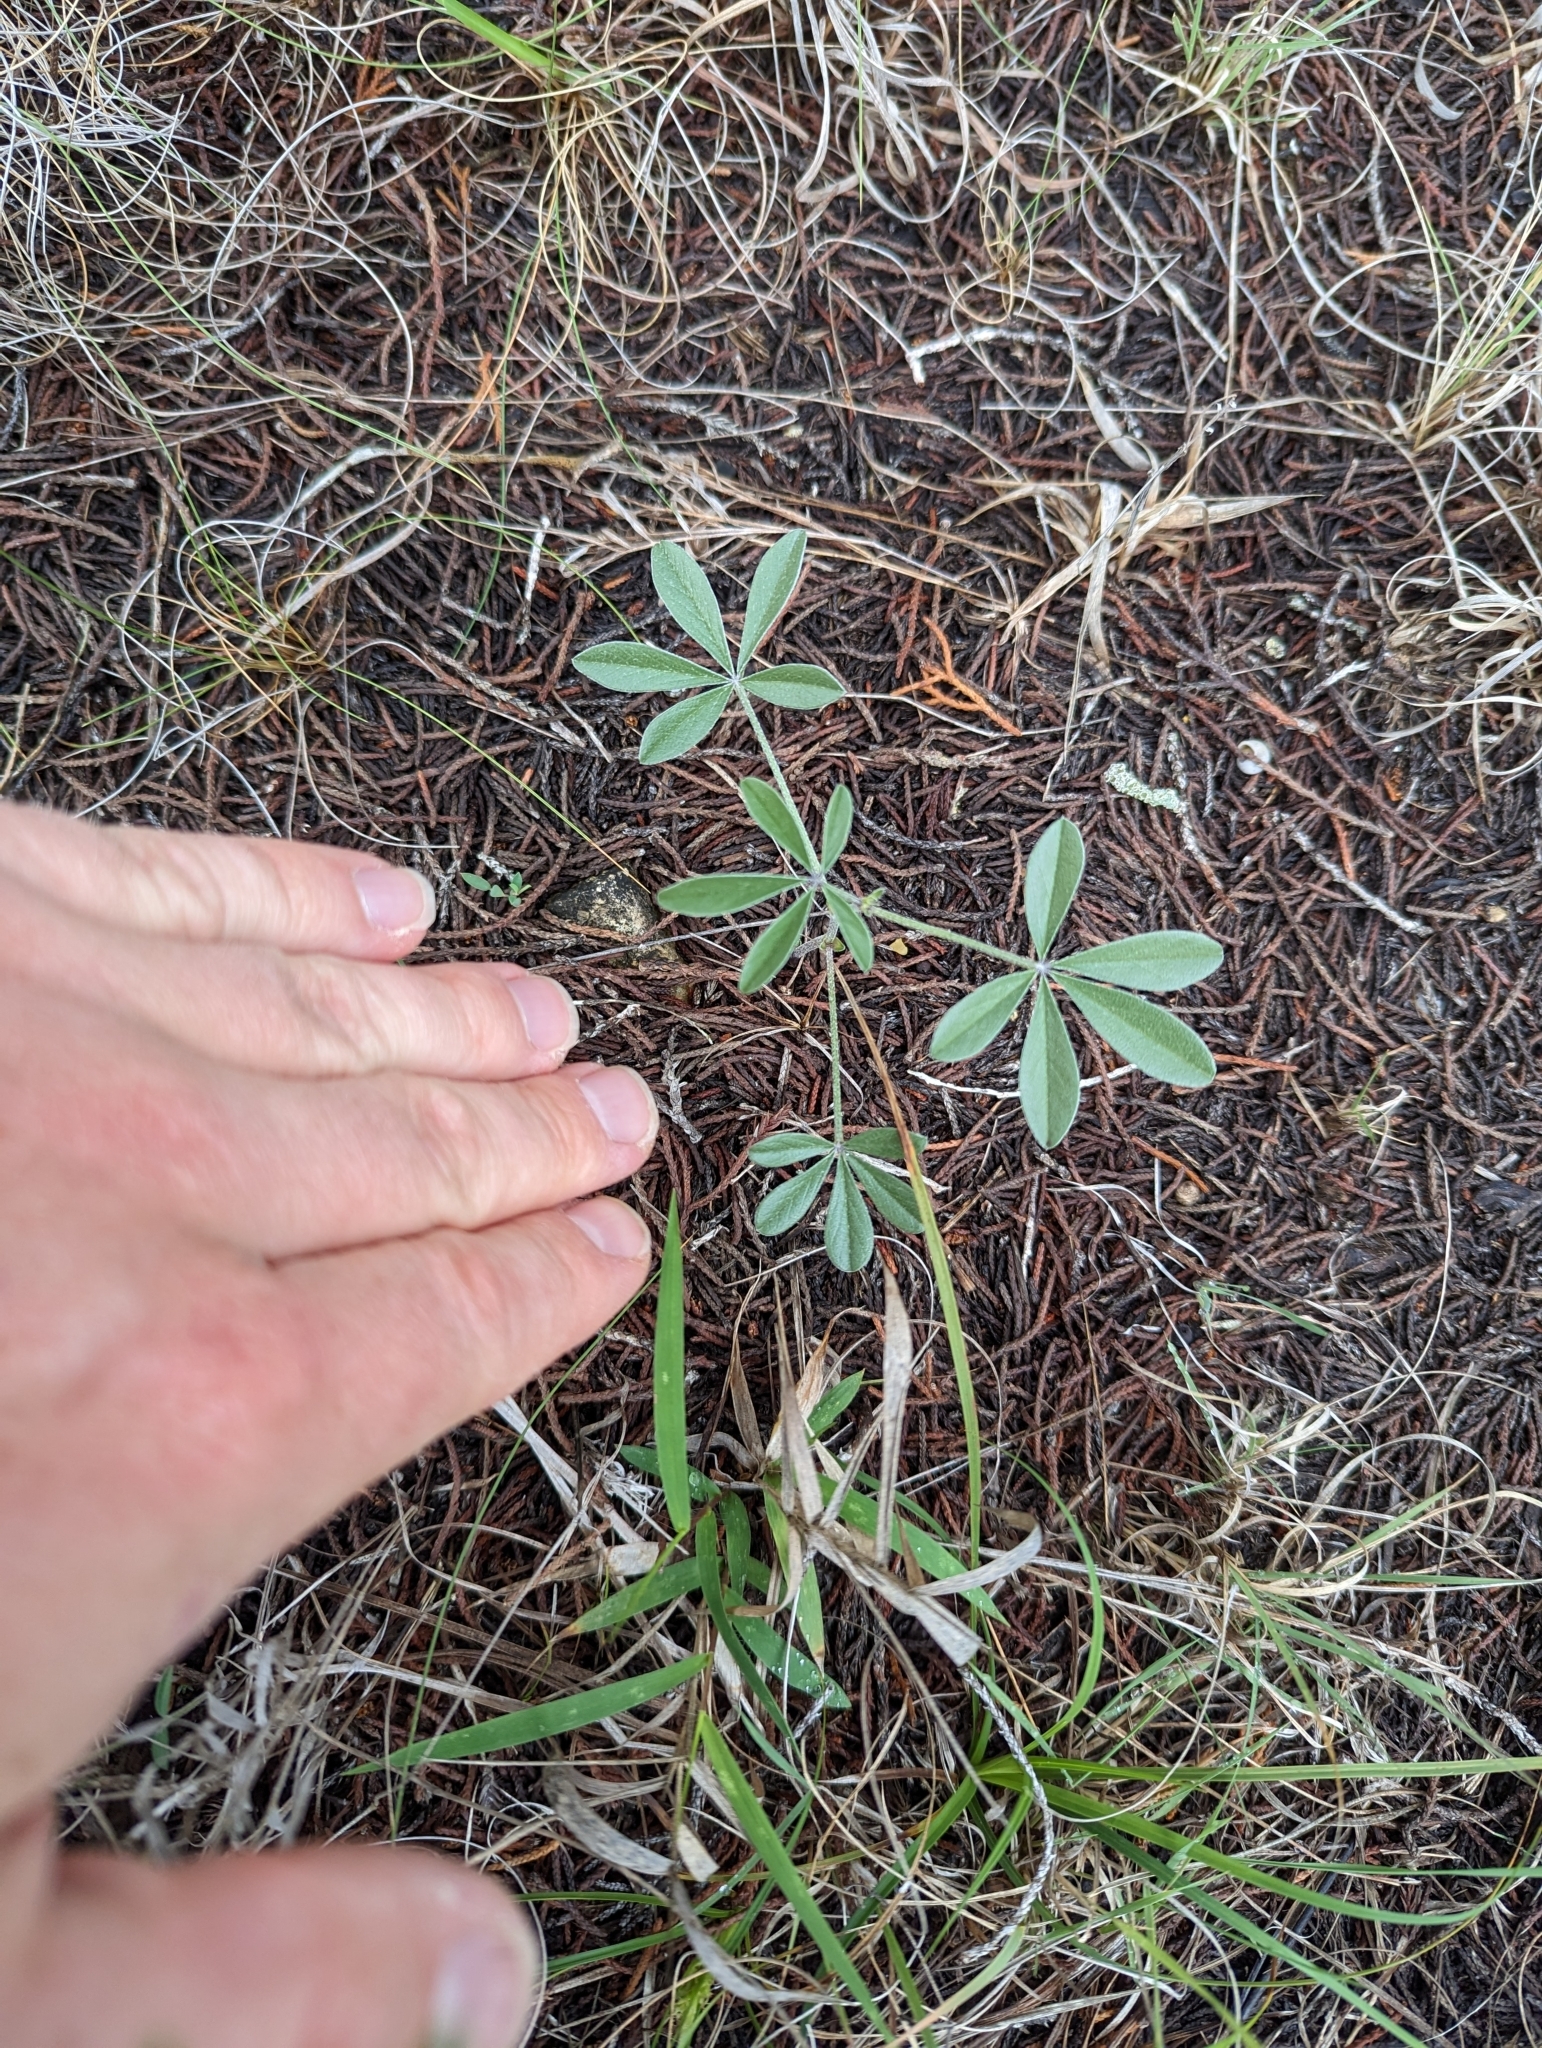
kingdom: Plantae
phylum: Tracheophyta
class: Magnoliopsida
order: Fabales
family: Fabaceae
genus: Pediomelum
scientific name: Pediomelum latestipulatum
